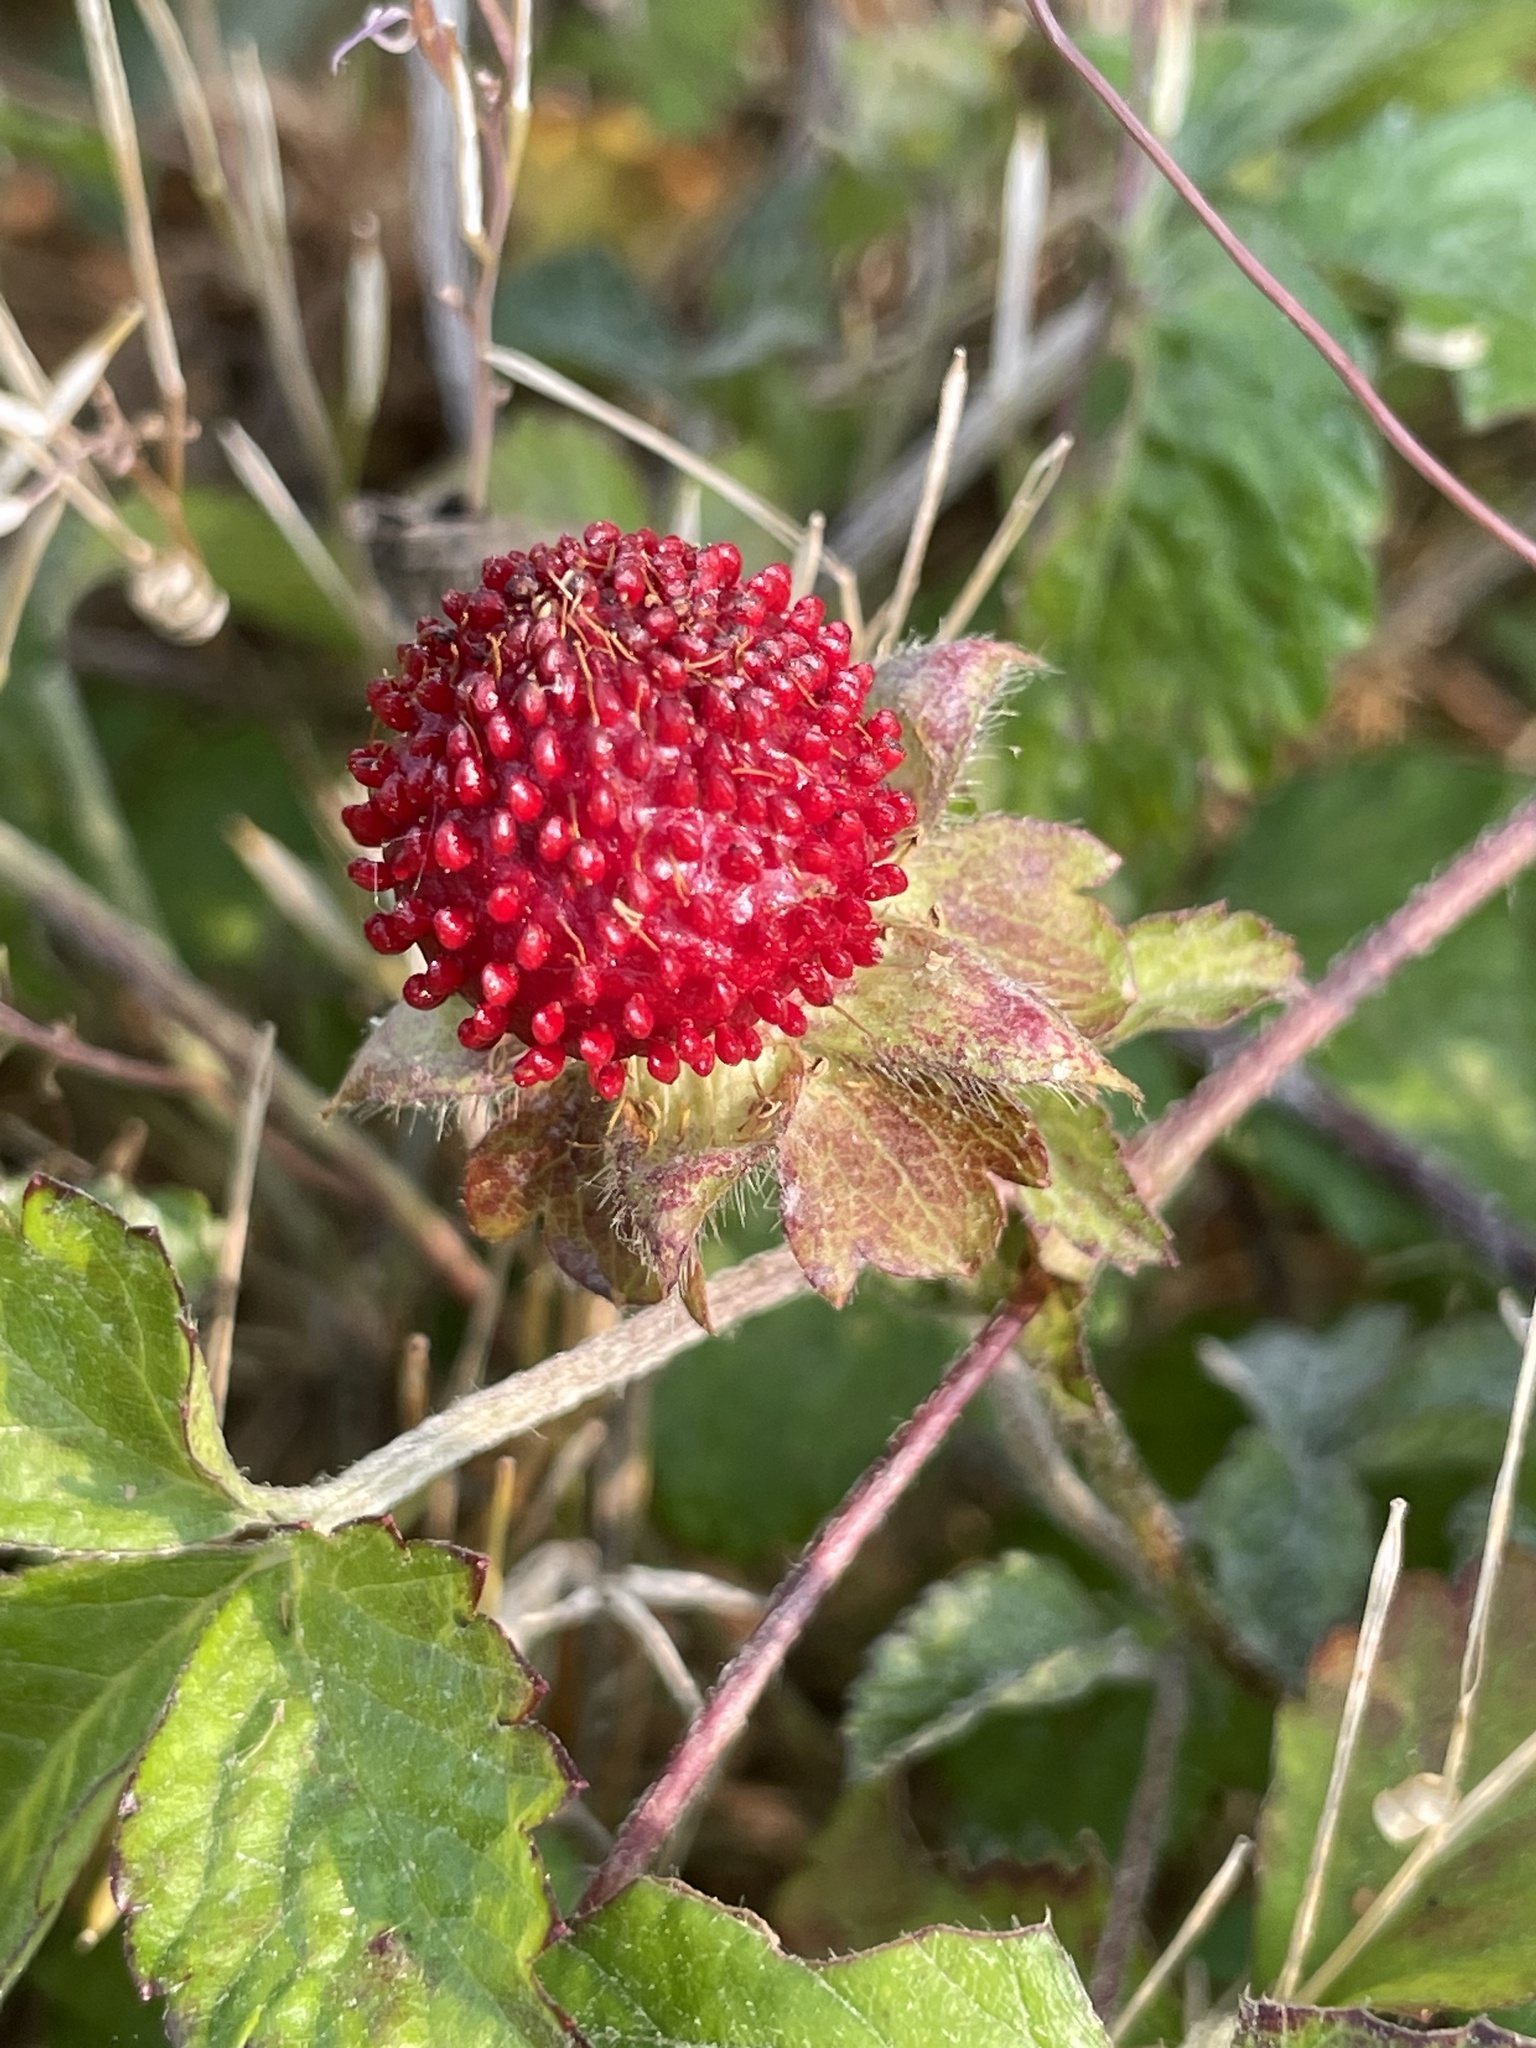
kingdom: Plantae
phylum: Tracheophyta
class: Magnoliopsida
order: Rosales
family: Rosaceae
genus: Potentilla
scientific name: Potentilla indica
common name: Yellow-flowered strawberry
